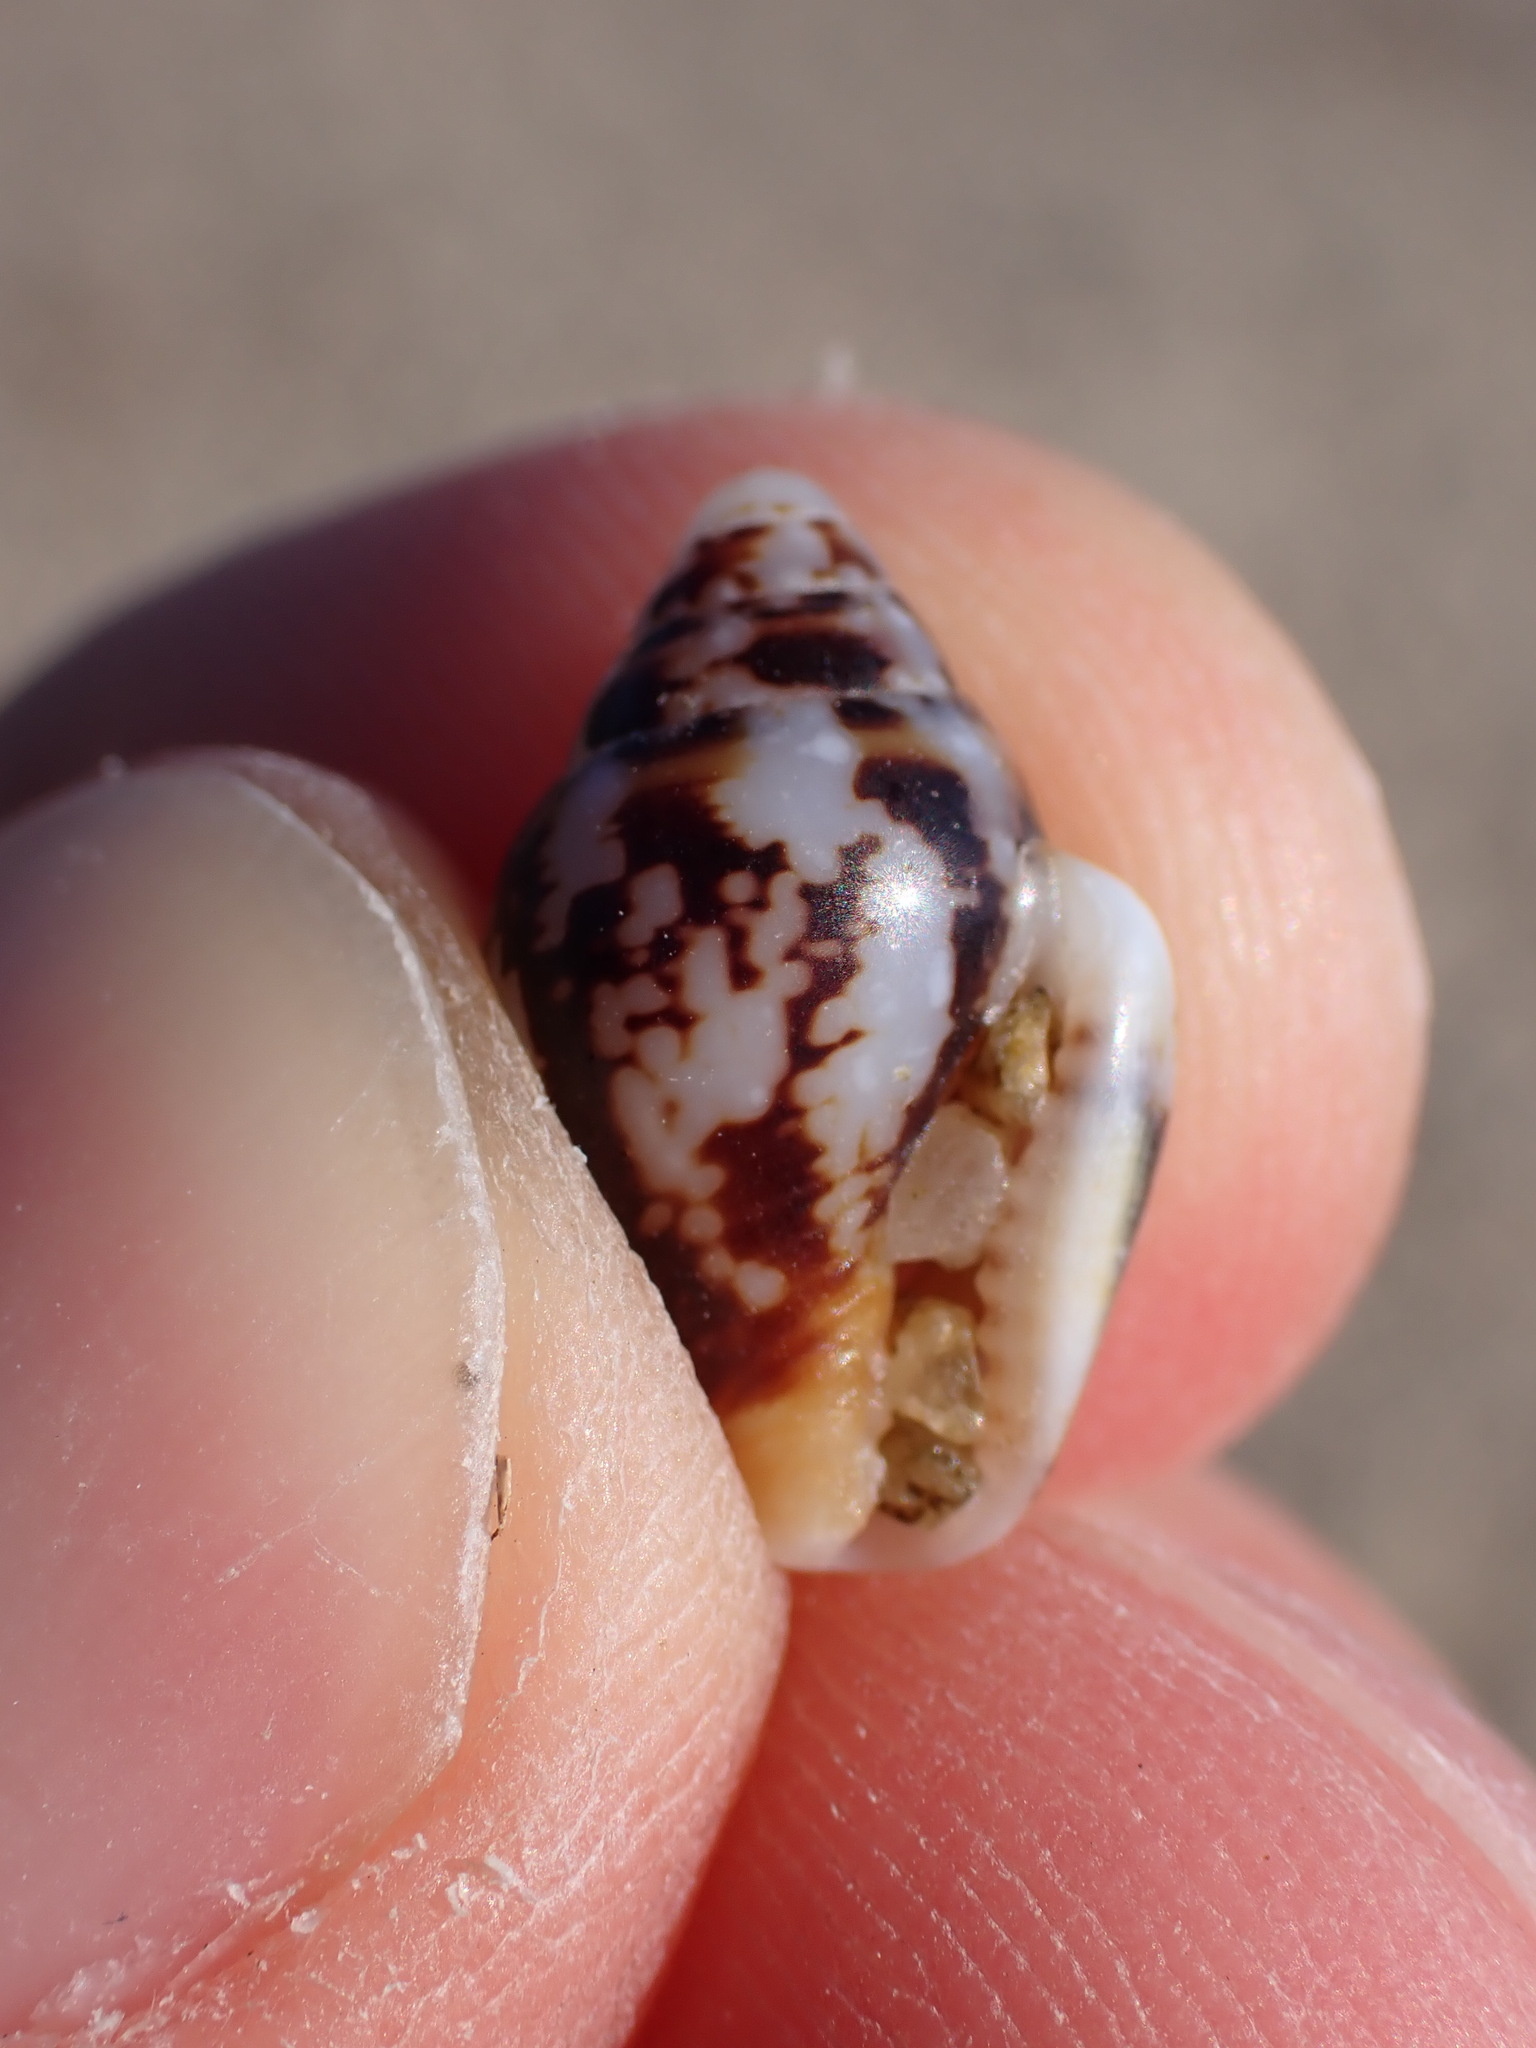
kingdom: Animalia
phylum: Mollusca
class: Gastropoda
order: Neogastropoda
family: Columbellidae
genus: Columbella
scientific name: Columbella rustica
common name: Rustic dove shell
